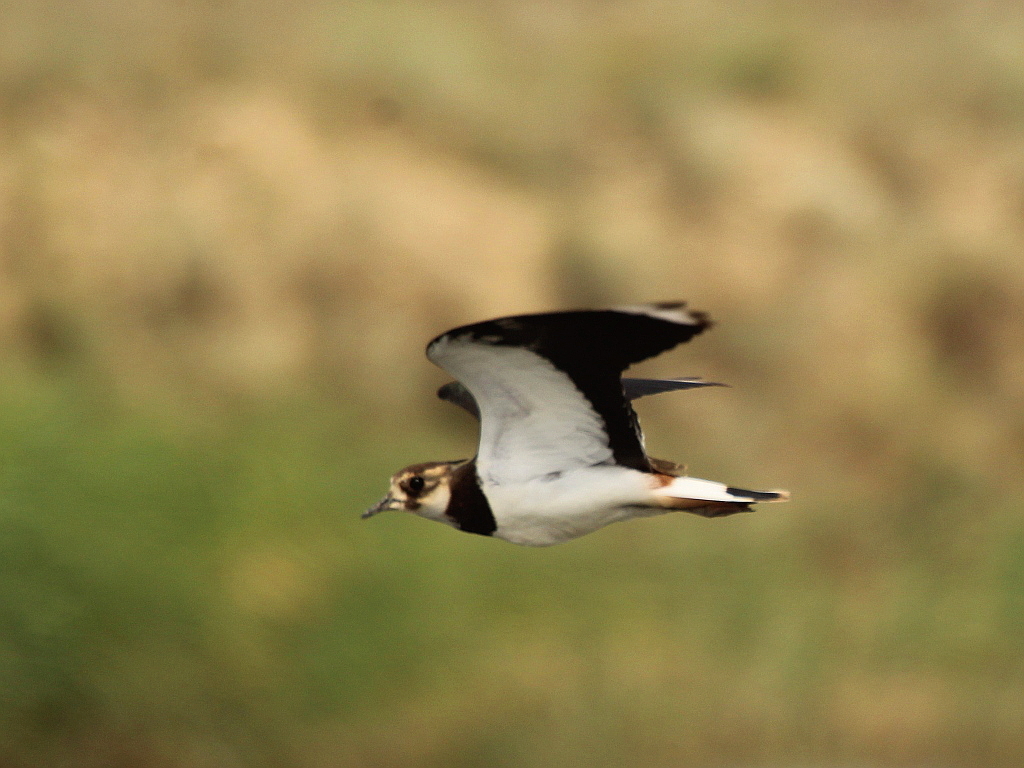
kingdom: Animalia
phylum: Chordata
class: Aves
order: Charadriiformes
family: Charadriidae
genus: Vanellus
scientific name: Vanellus vanellus
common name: Northern lapwing
